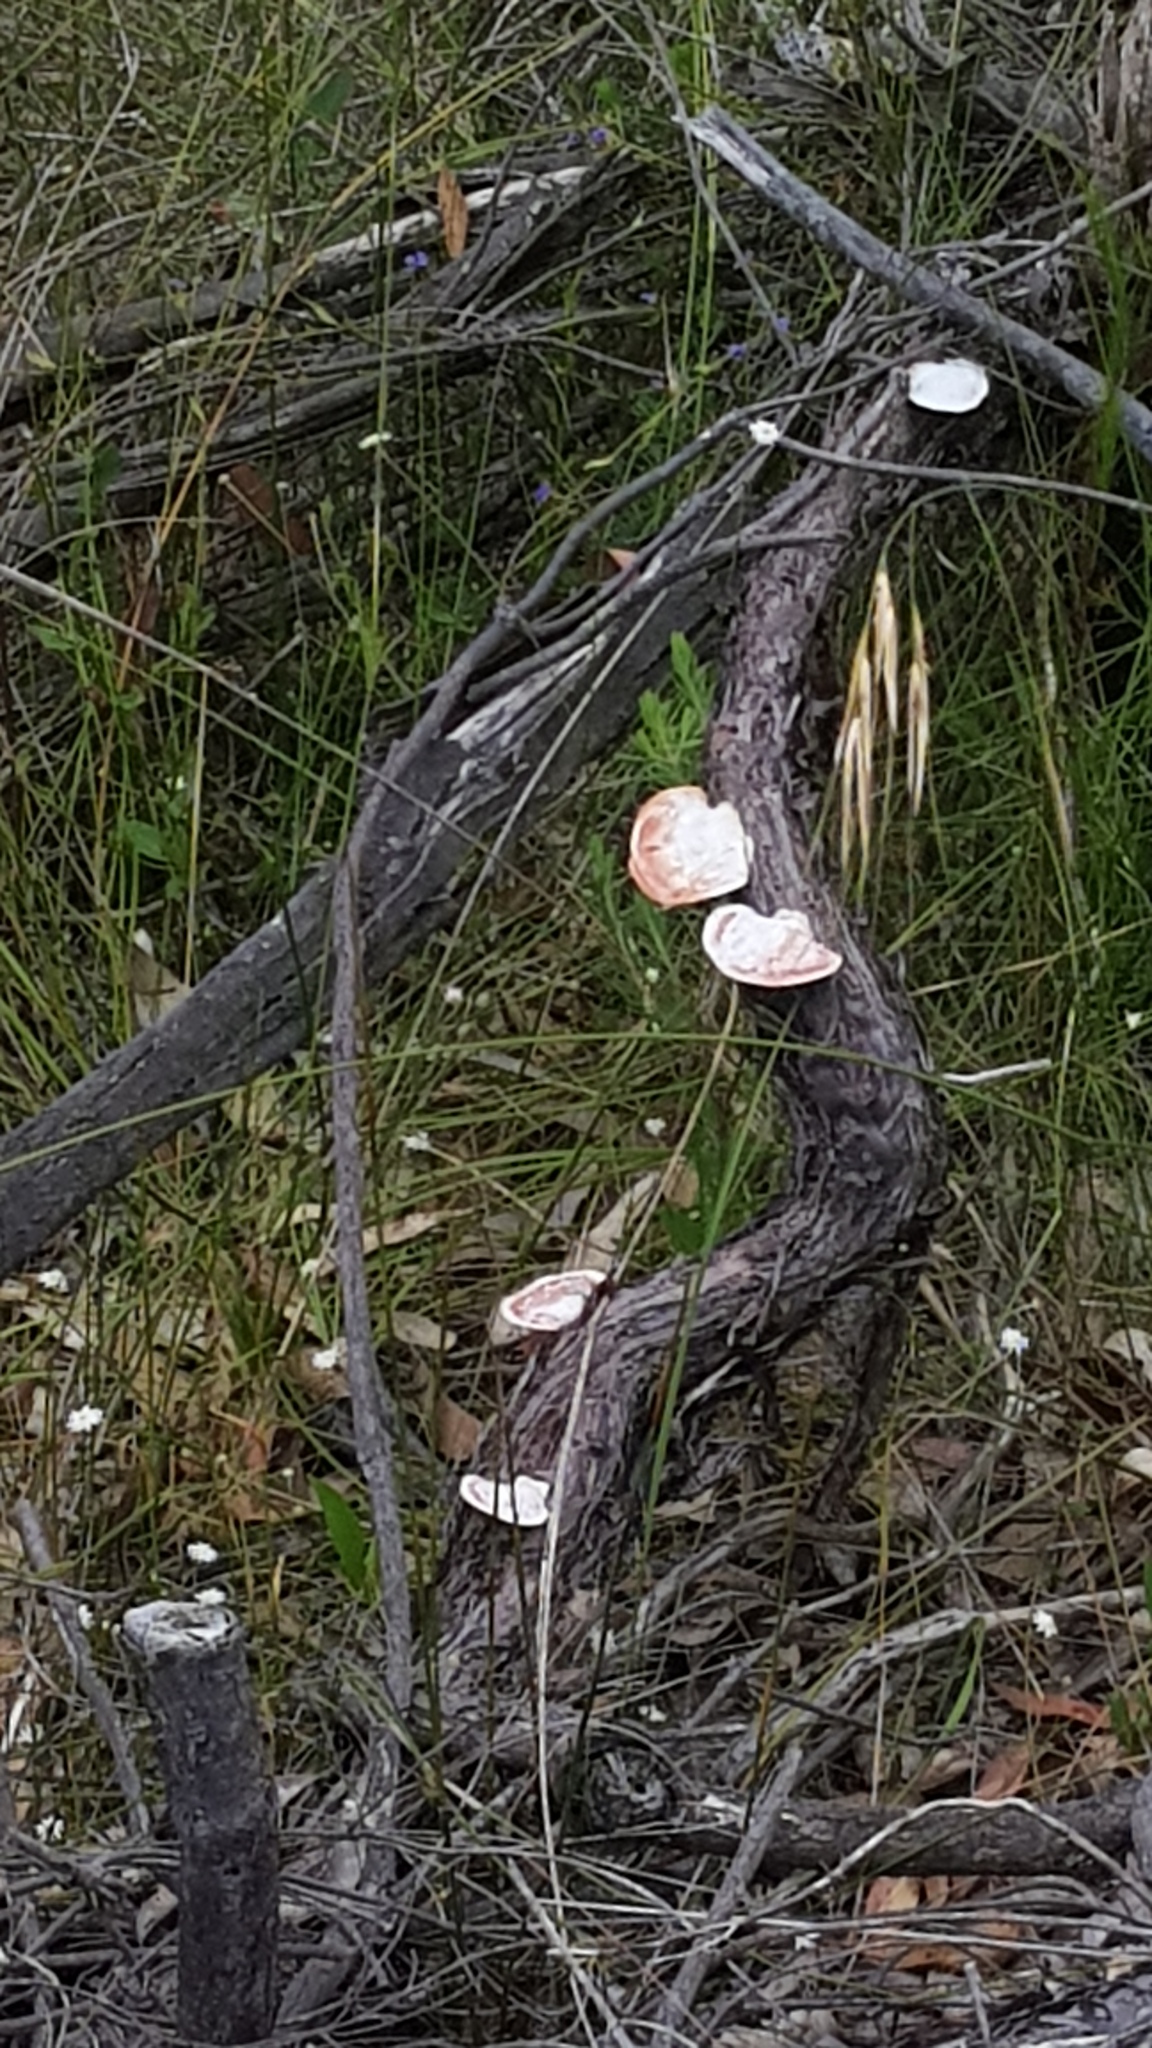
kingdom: Fungi
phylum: Basidiomycota
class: Agaricomycetes
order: Polyporales
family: Polyporaceae
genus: Trametes
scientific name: Trametes coccinea
